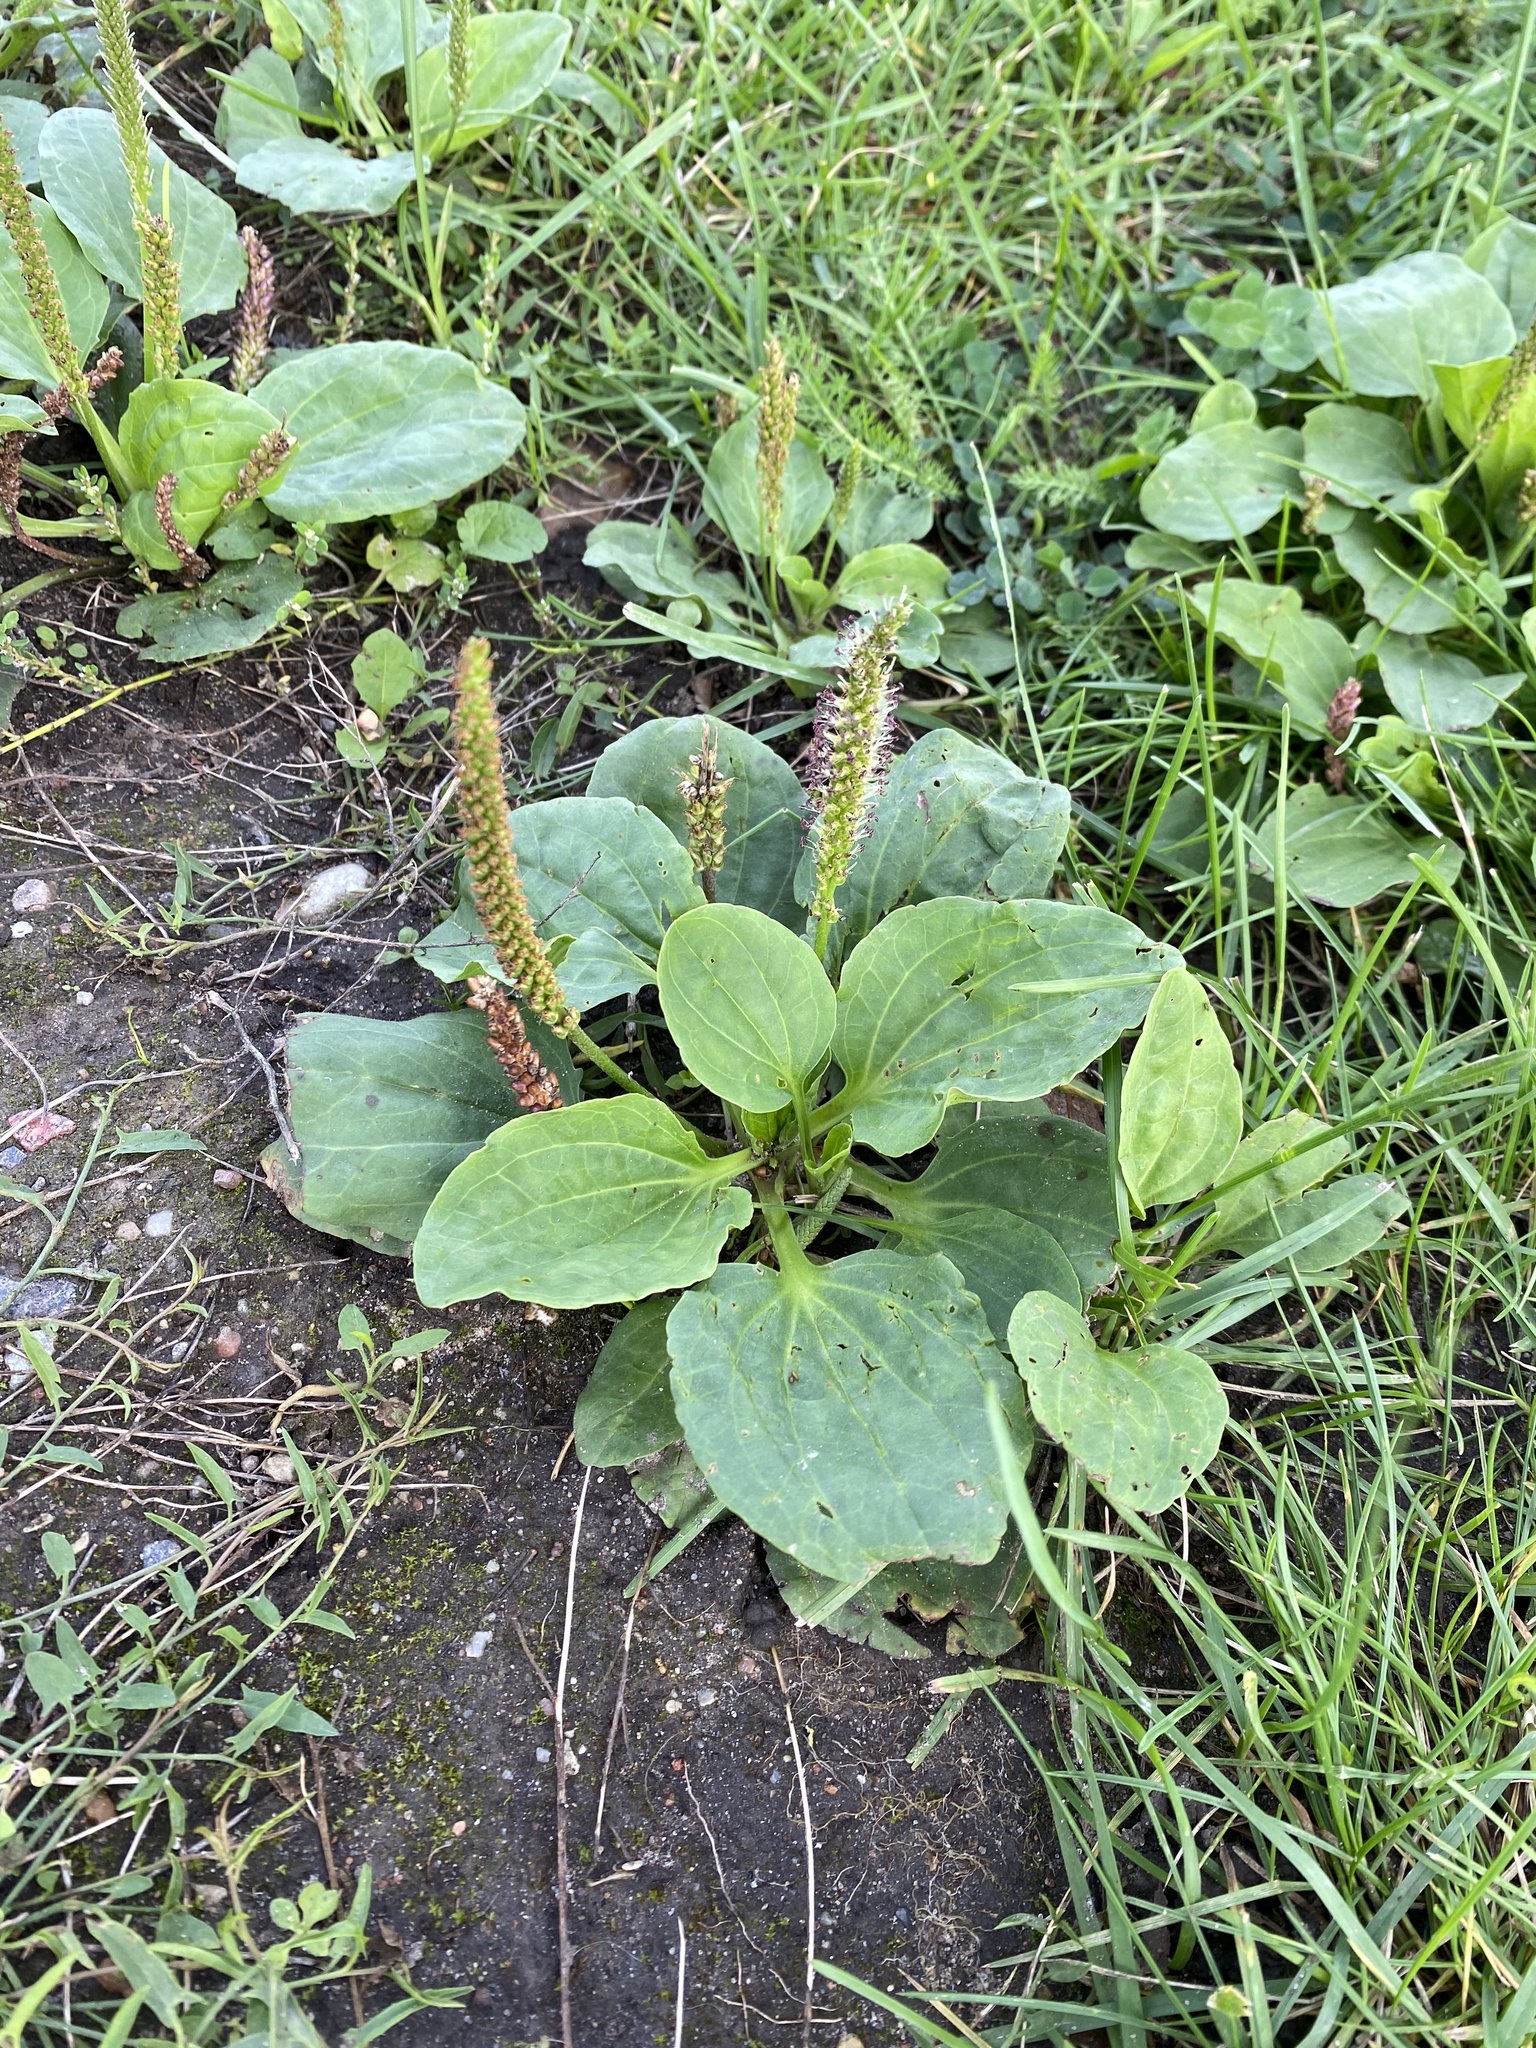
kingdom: Plantae
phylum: Tracheophyta
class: Magnoliopsida
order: Lamiales
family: Plantaginaceae
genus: Plantago
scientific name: Plantago major
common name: Common plantain
